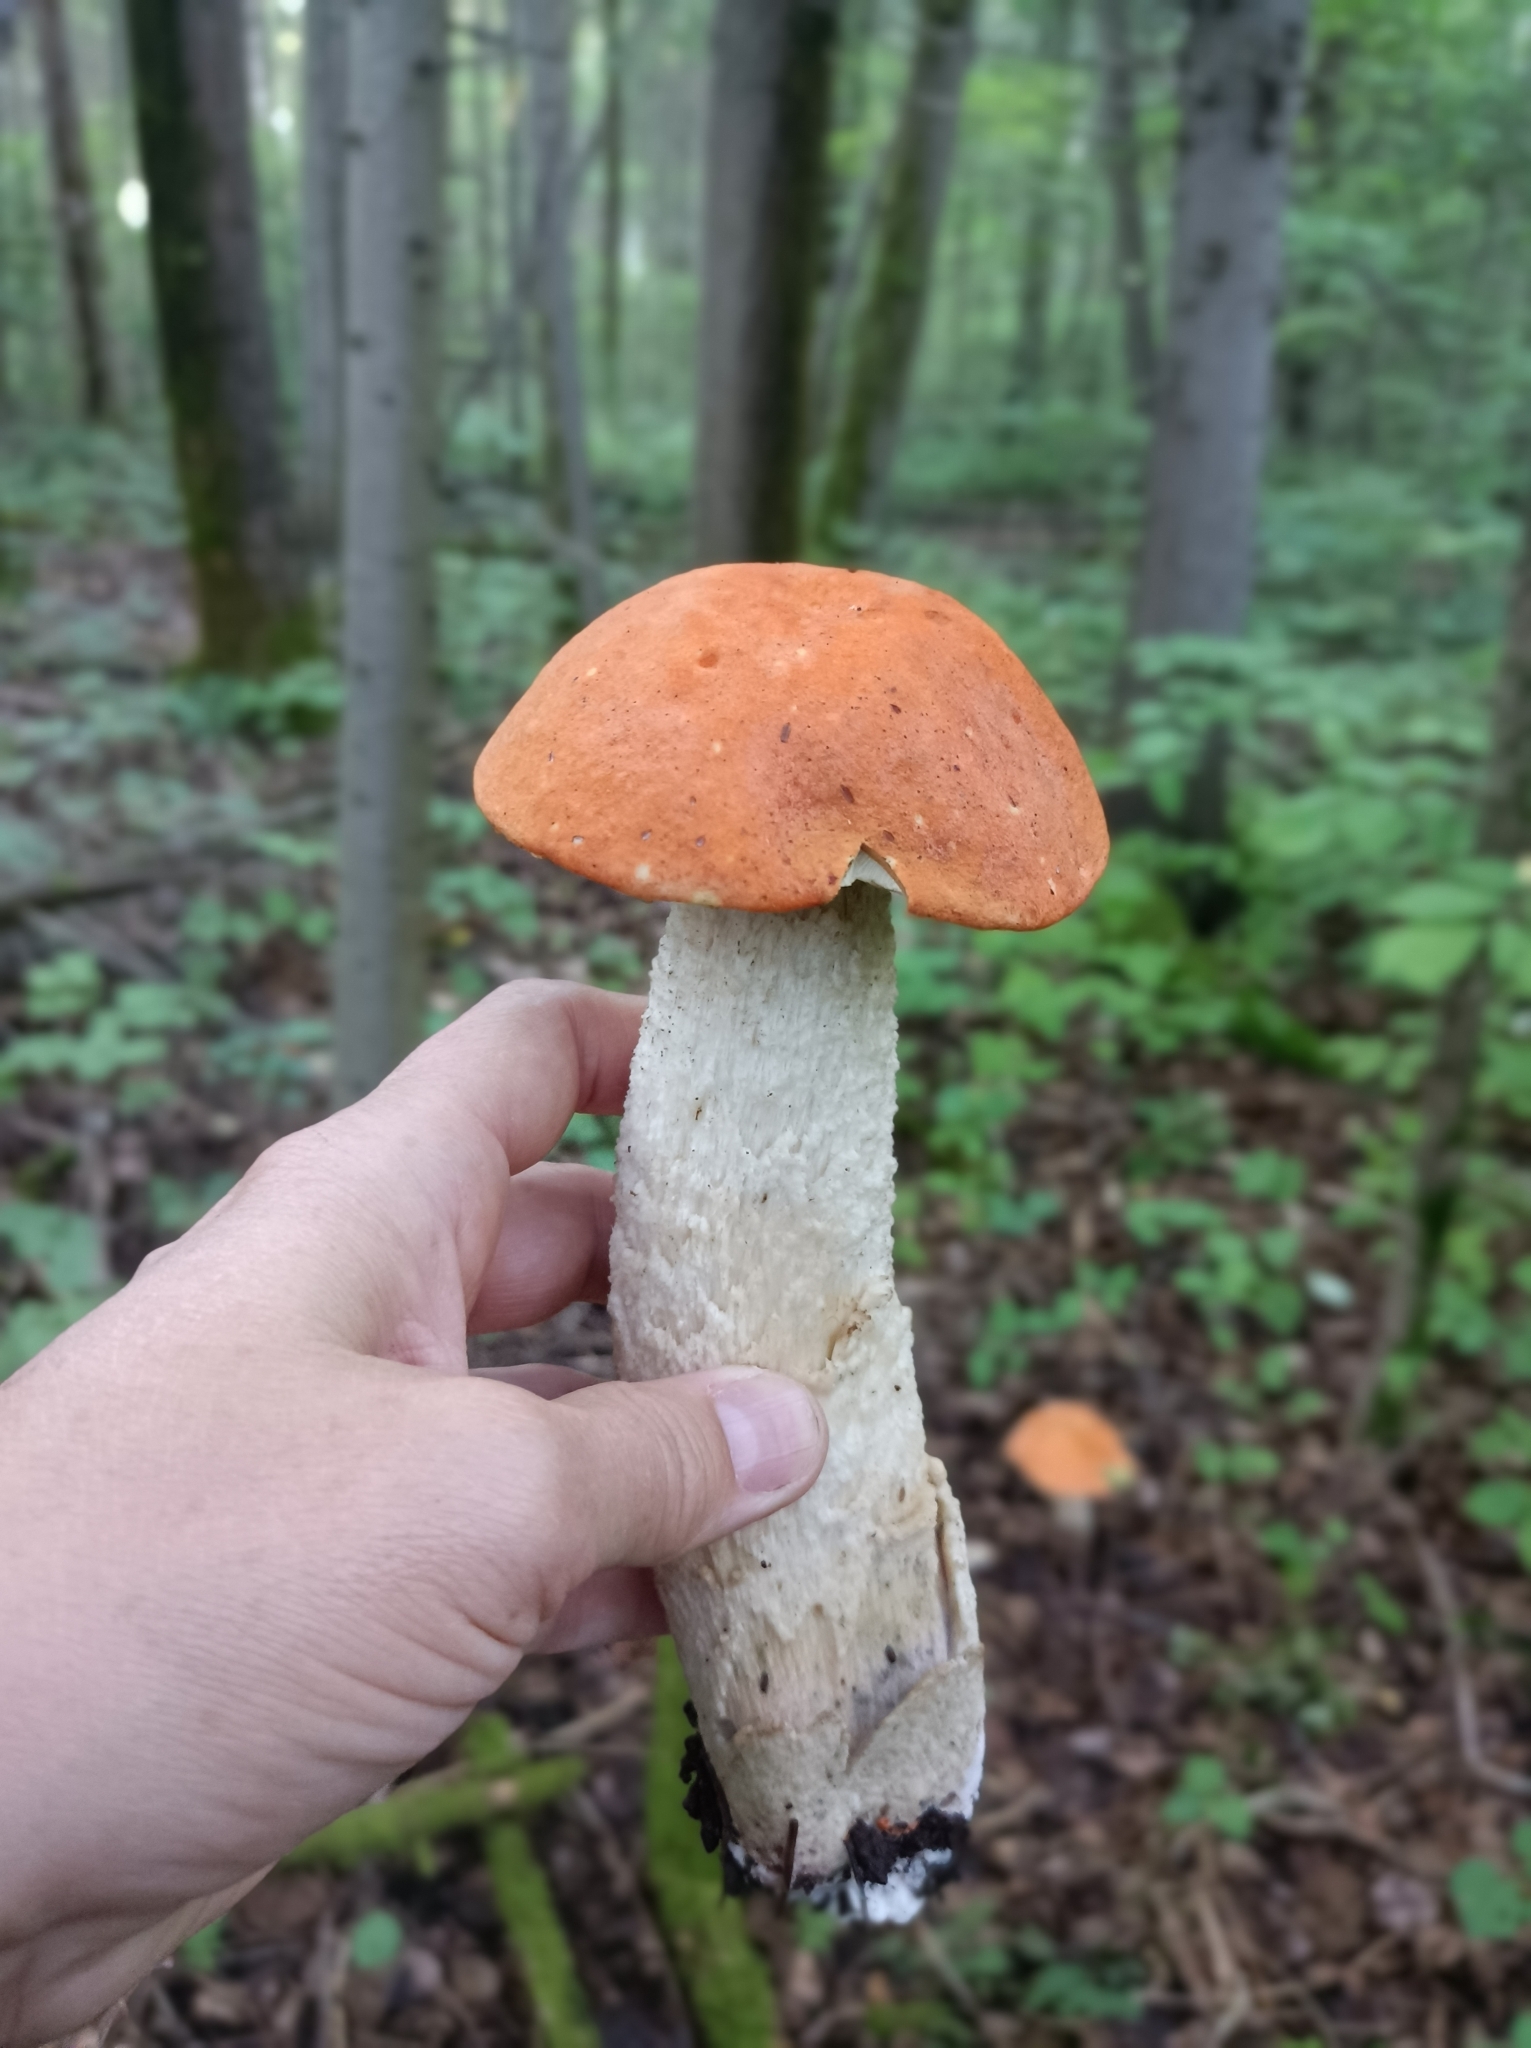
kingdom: Fungi
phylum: Basidiomycota
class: Agaricomycetes
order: Boletales
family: Boletaceae
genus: Leccinum
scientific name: Leccinum albostipitatum
